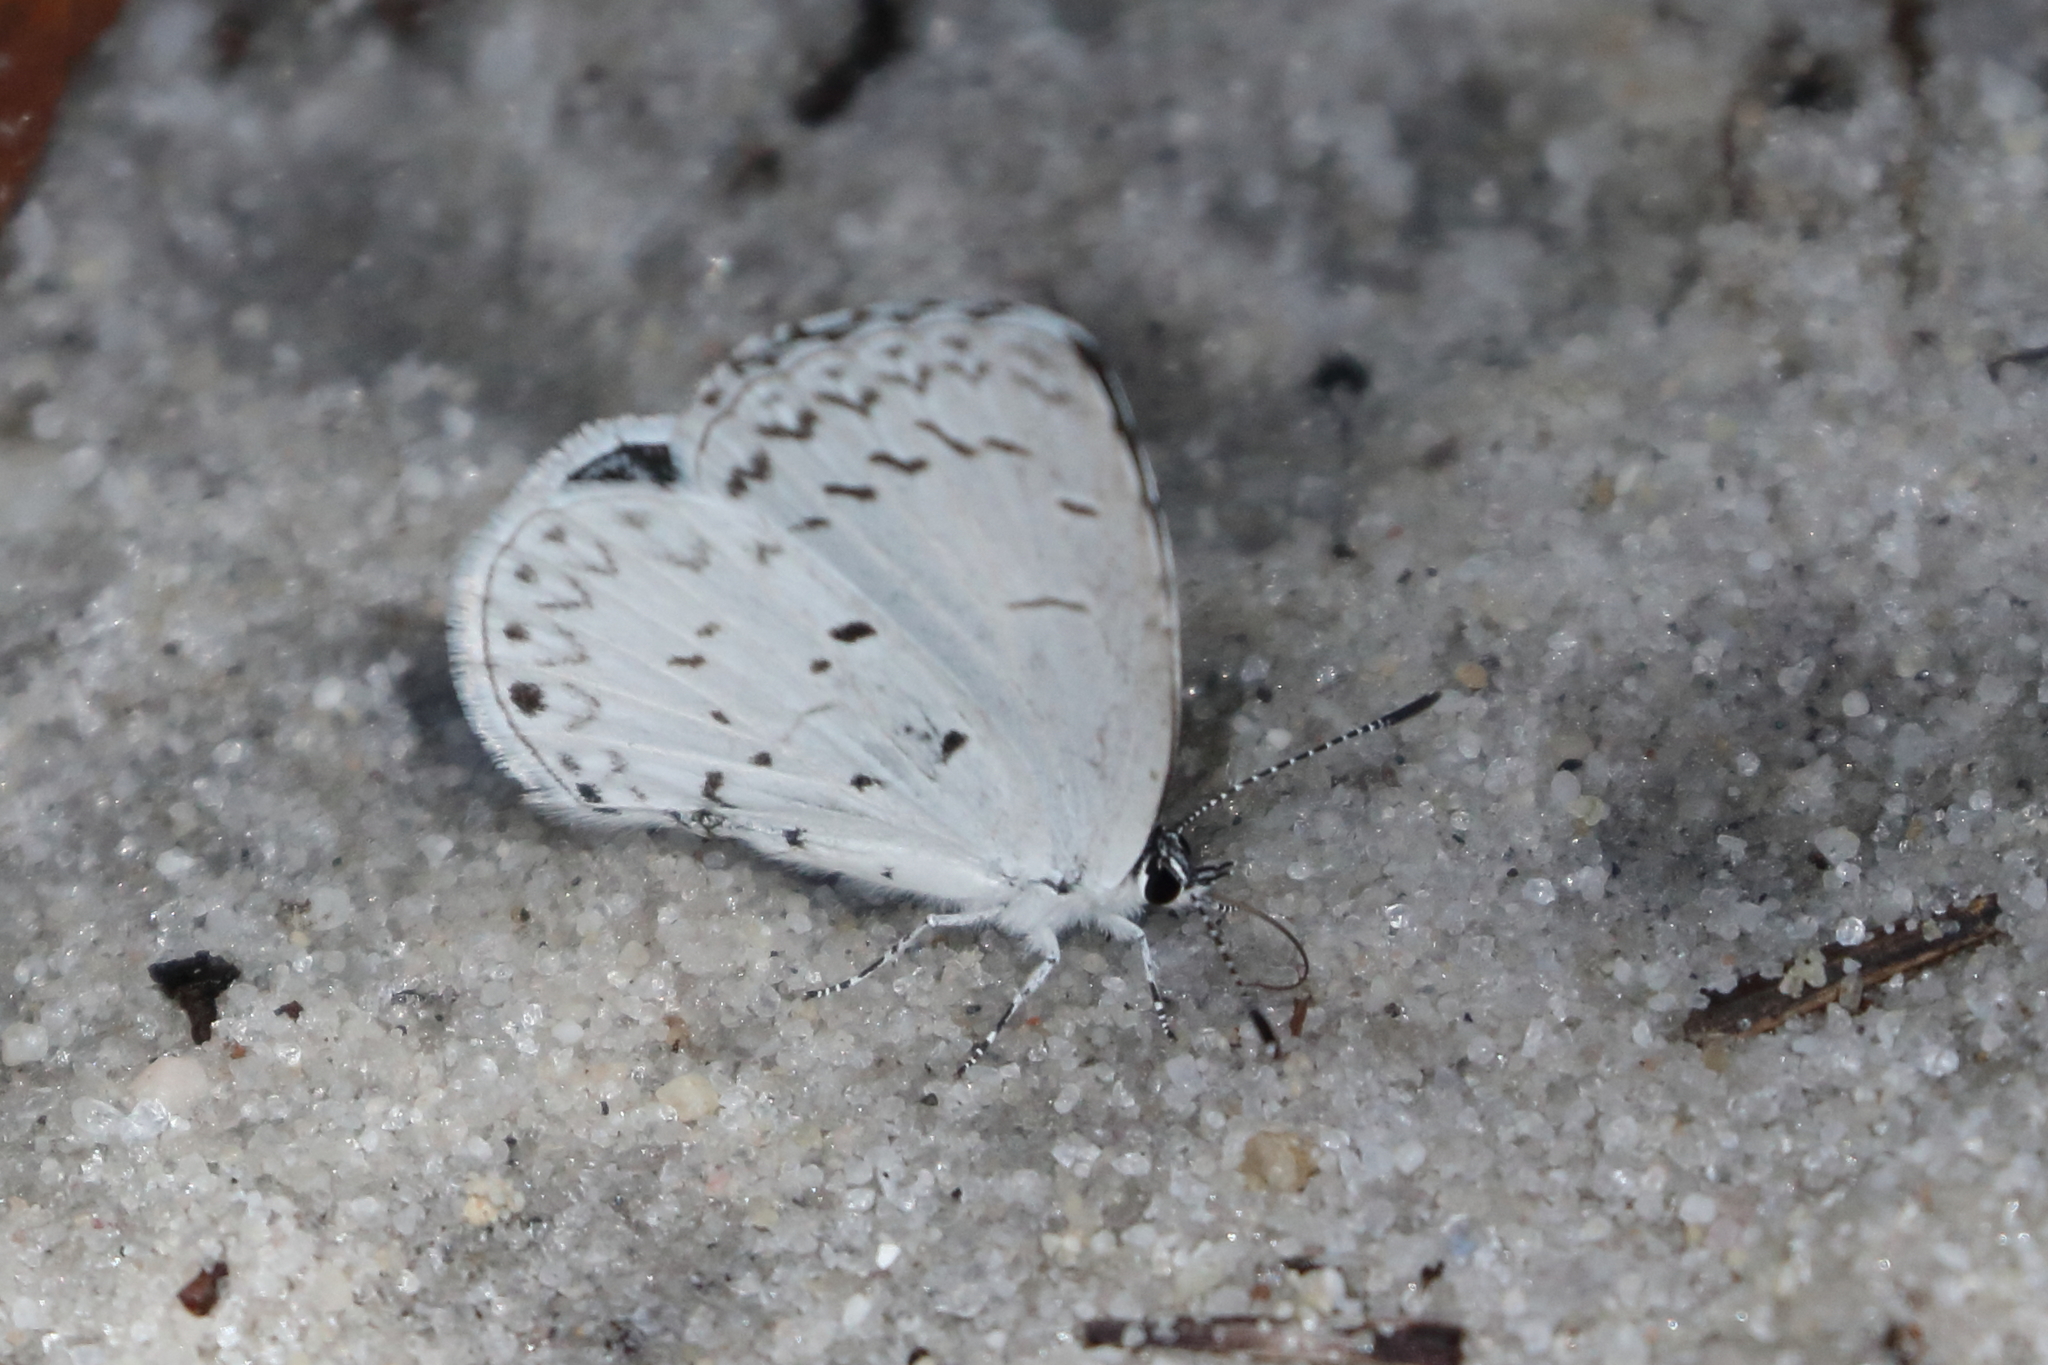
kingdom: Animalia
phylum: Arthropoda
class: Insecta
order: Lepidoptera
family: Lycaenidae
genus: Cyaniris
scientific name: Cyaniris neglecta
